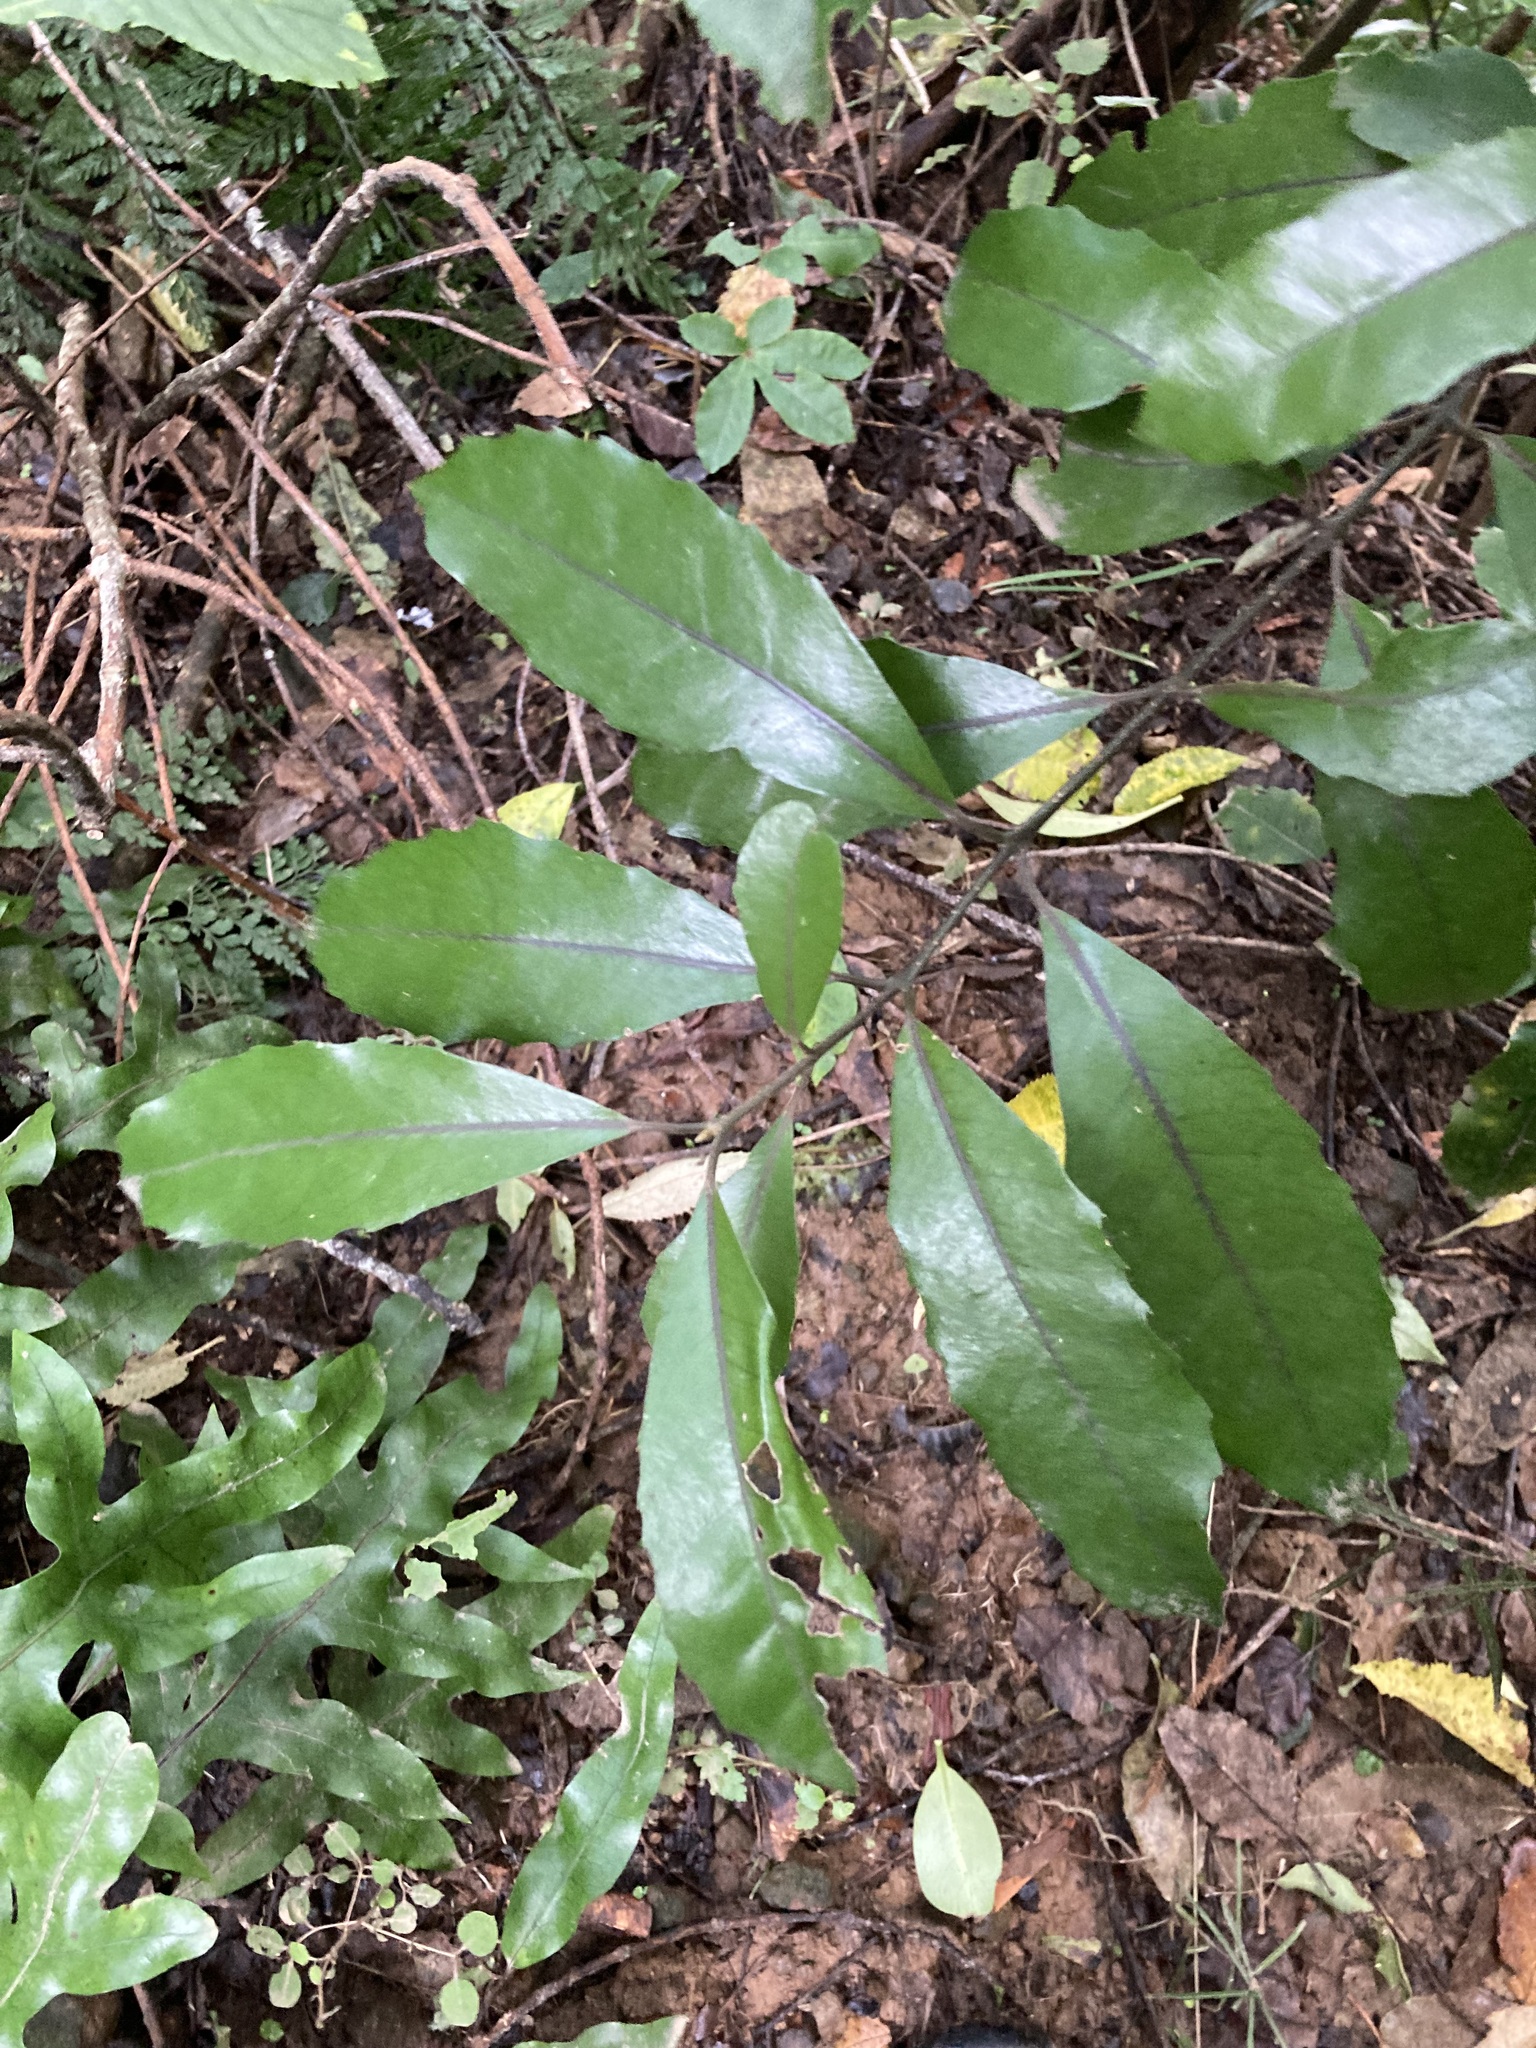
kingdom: Plantae
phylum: Tracheophyta
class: Magnoliopsida
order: Laurales
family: Monimiaceae
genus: Hedycarya
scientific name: Hedycarya arborea
